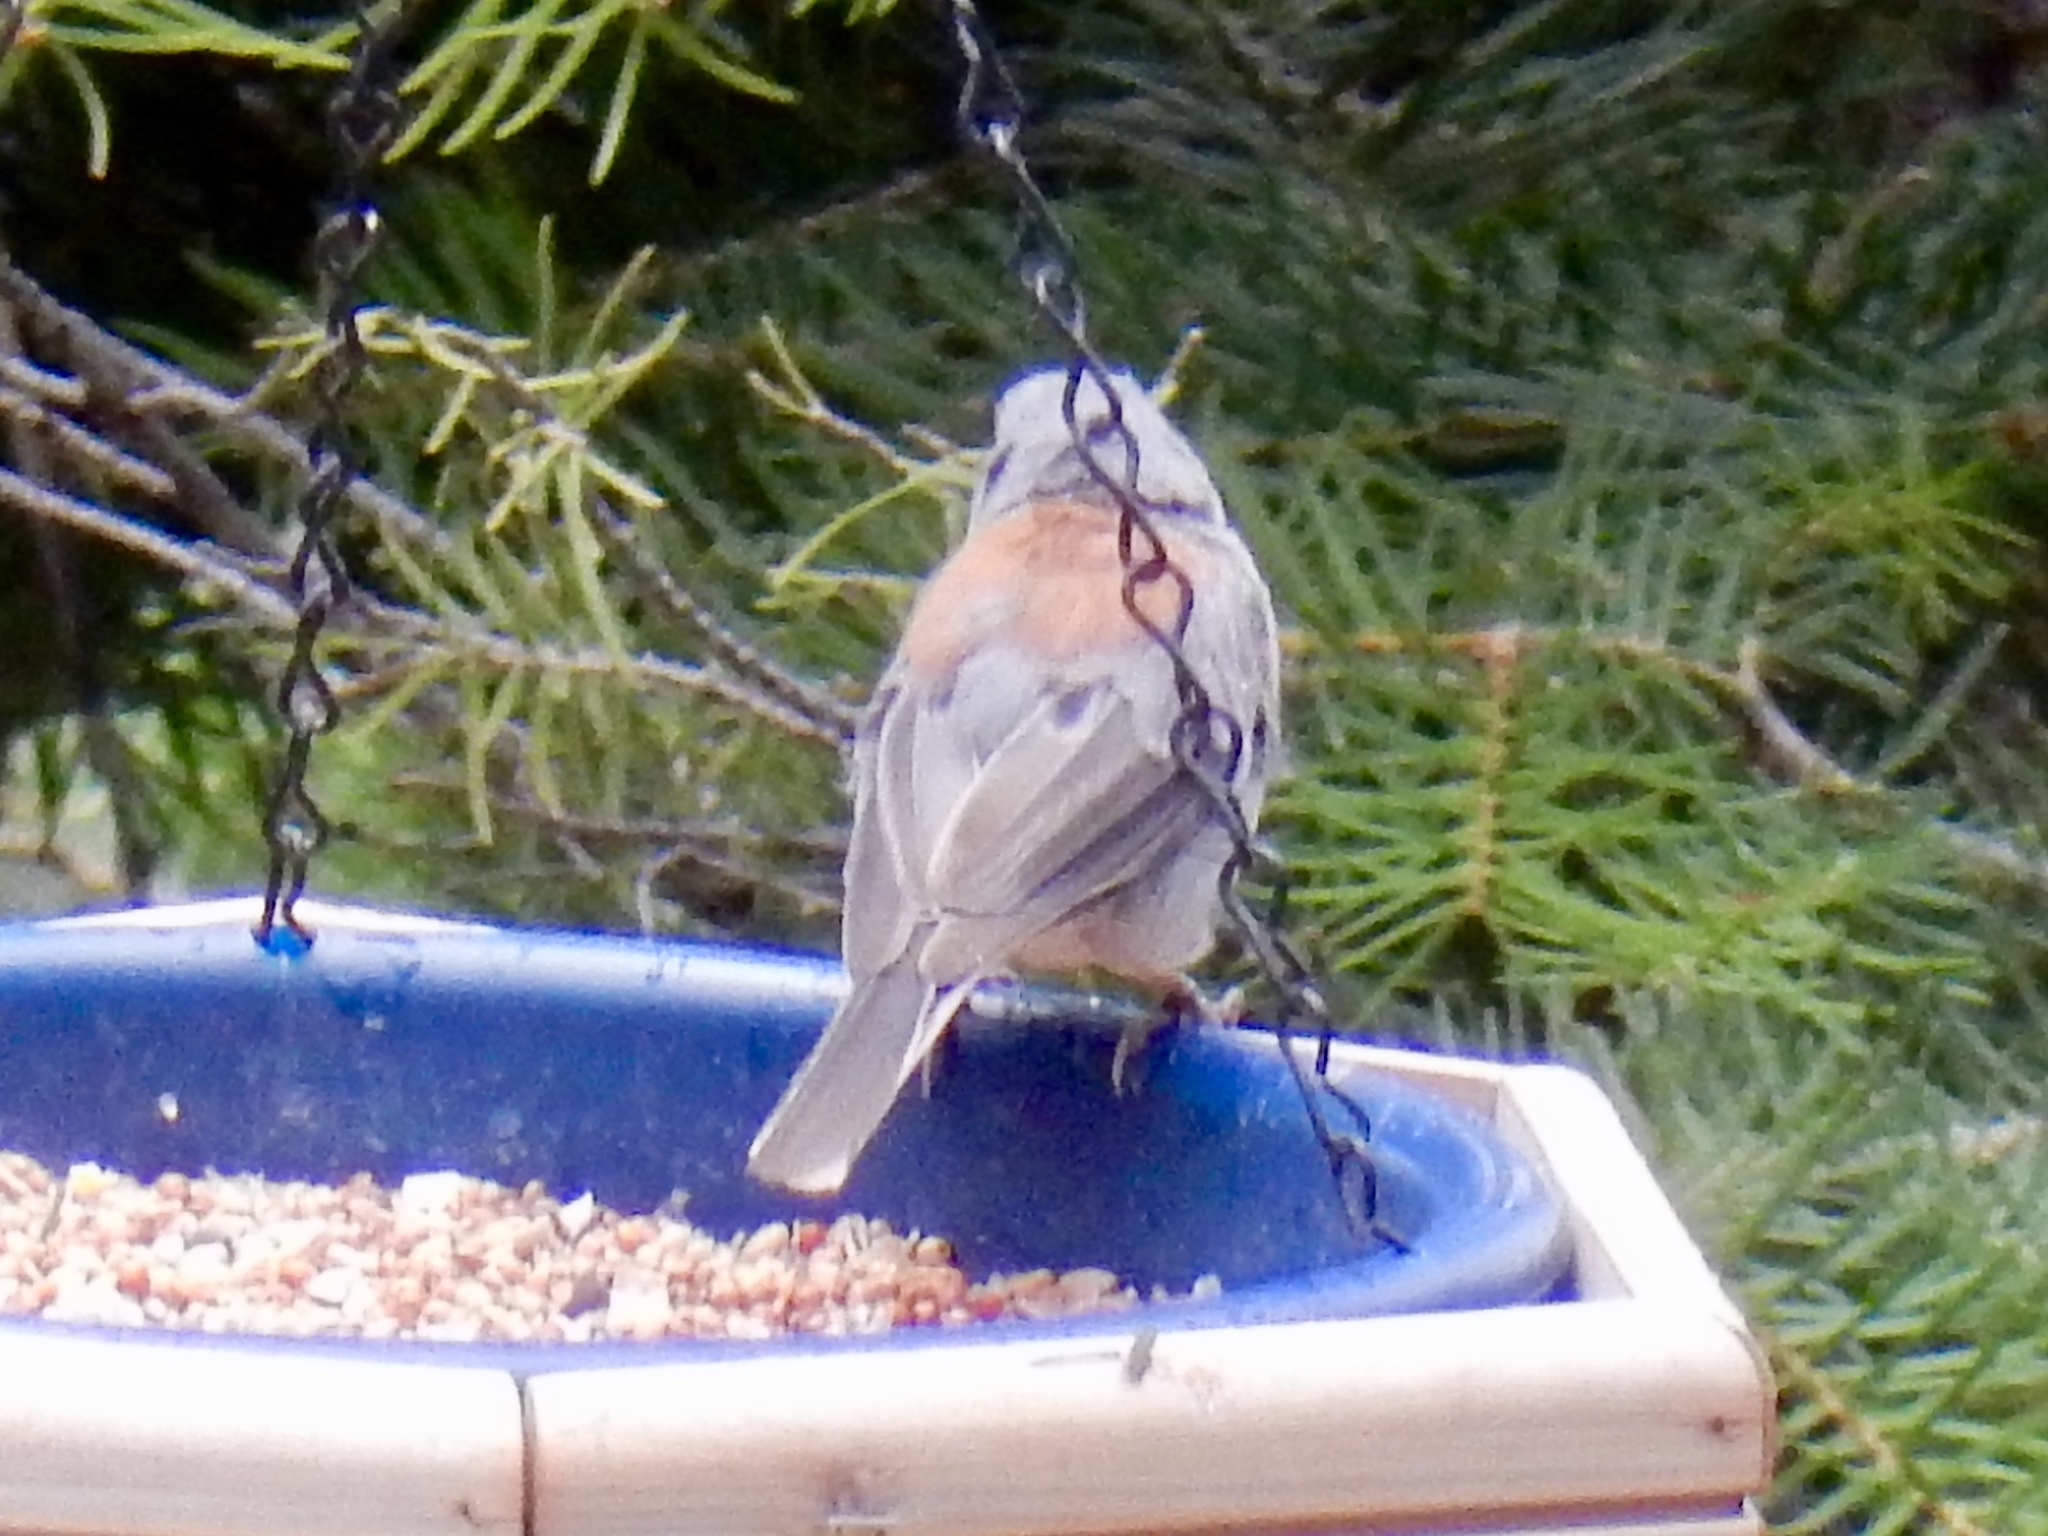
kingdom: Animalia
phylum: Chordata
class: Aves
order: Passeriformes
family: Passerellidae
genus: Junco
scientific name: Junco hyemalis
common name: Dark-eyed junco
